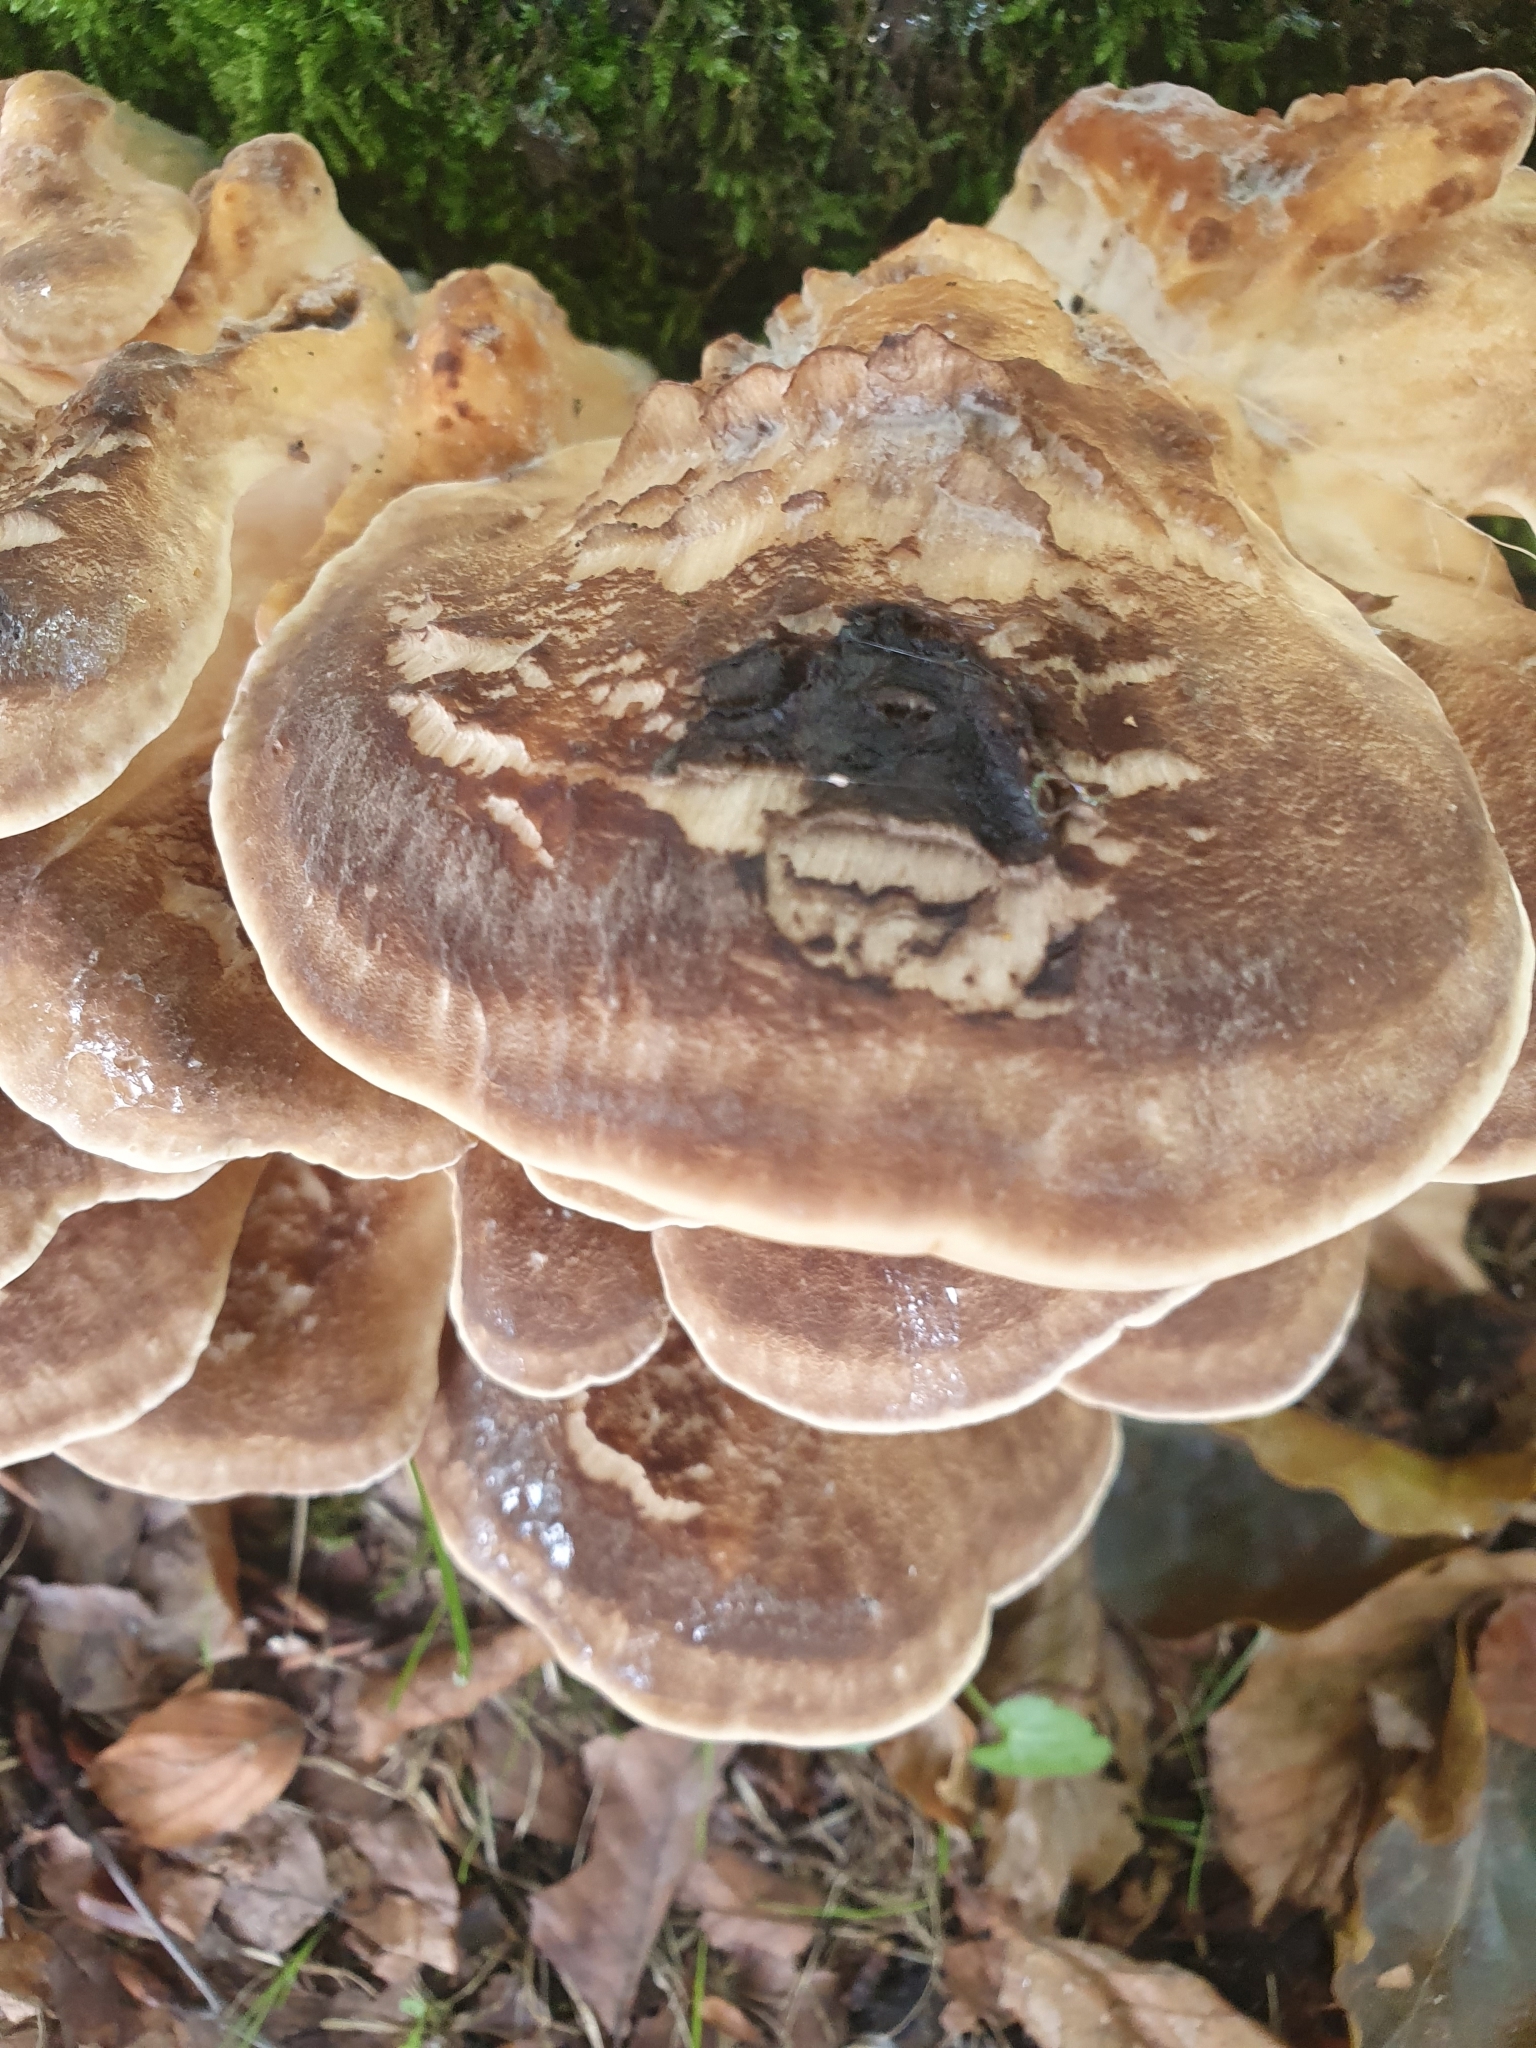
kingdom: Fungi
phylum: Basidiomycota
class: Agaricomycetes
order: Polyporales
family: Meripilaceae
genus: Meripilus
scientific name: Meripilus giganteus
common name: Giant polypore
